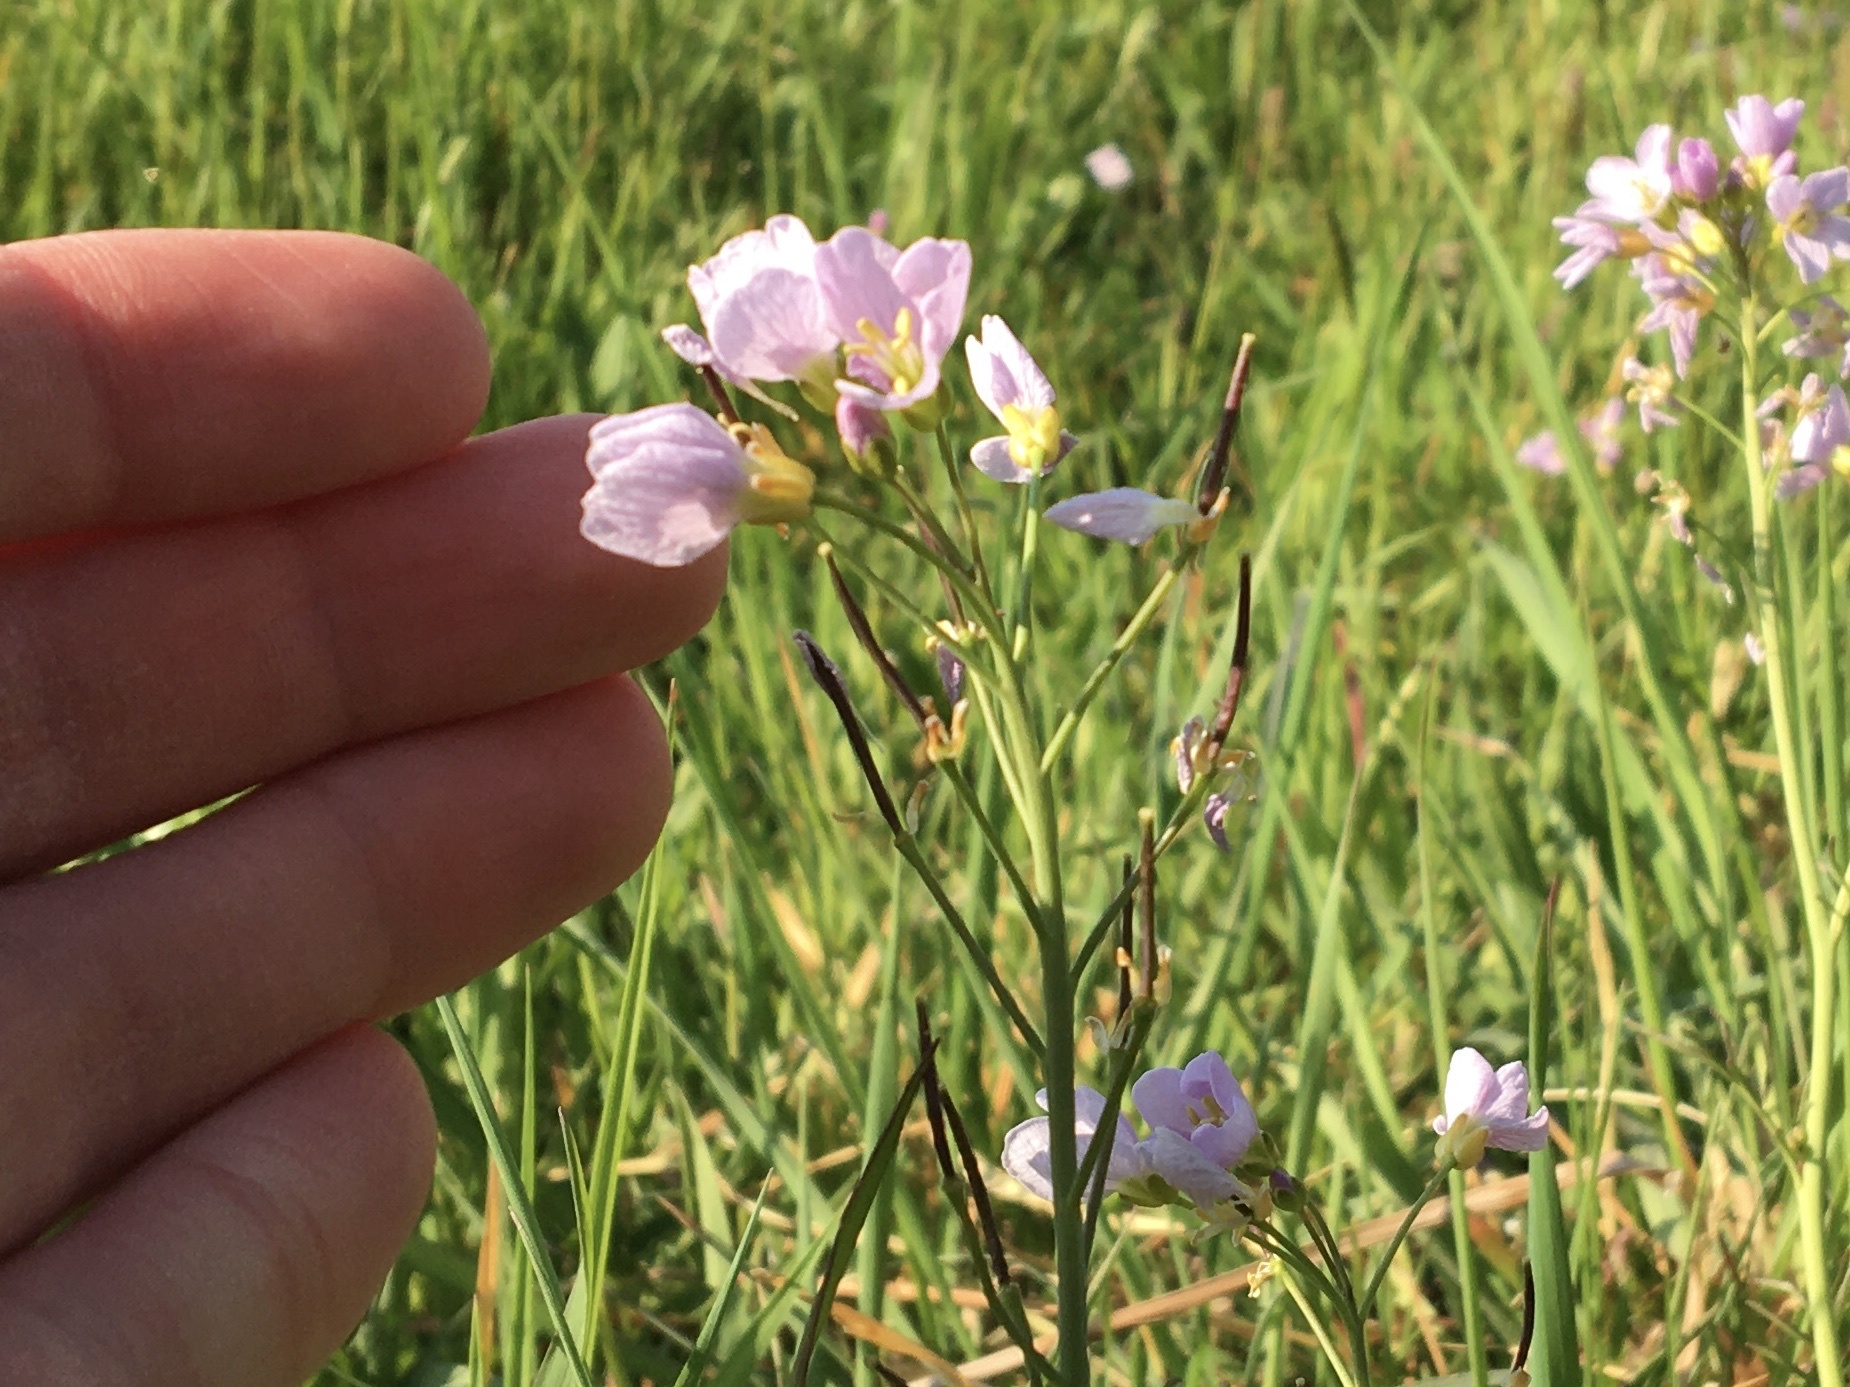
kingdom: Plantae
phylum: Tracheophyta
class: Magnoliopsida
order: Brassicales
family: Brassicaceae
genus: Cardamine
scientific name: Cardamine pratensis
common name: Cuckoo flower
